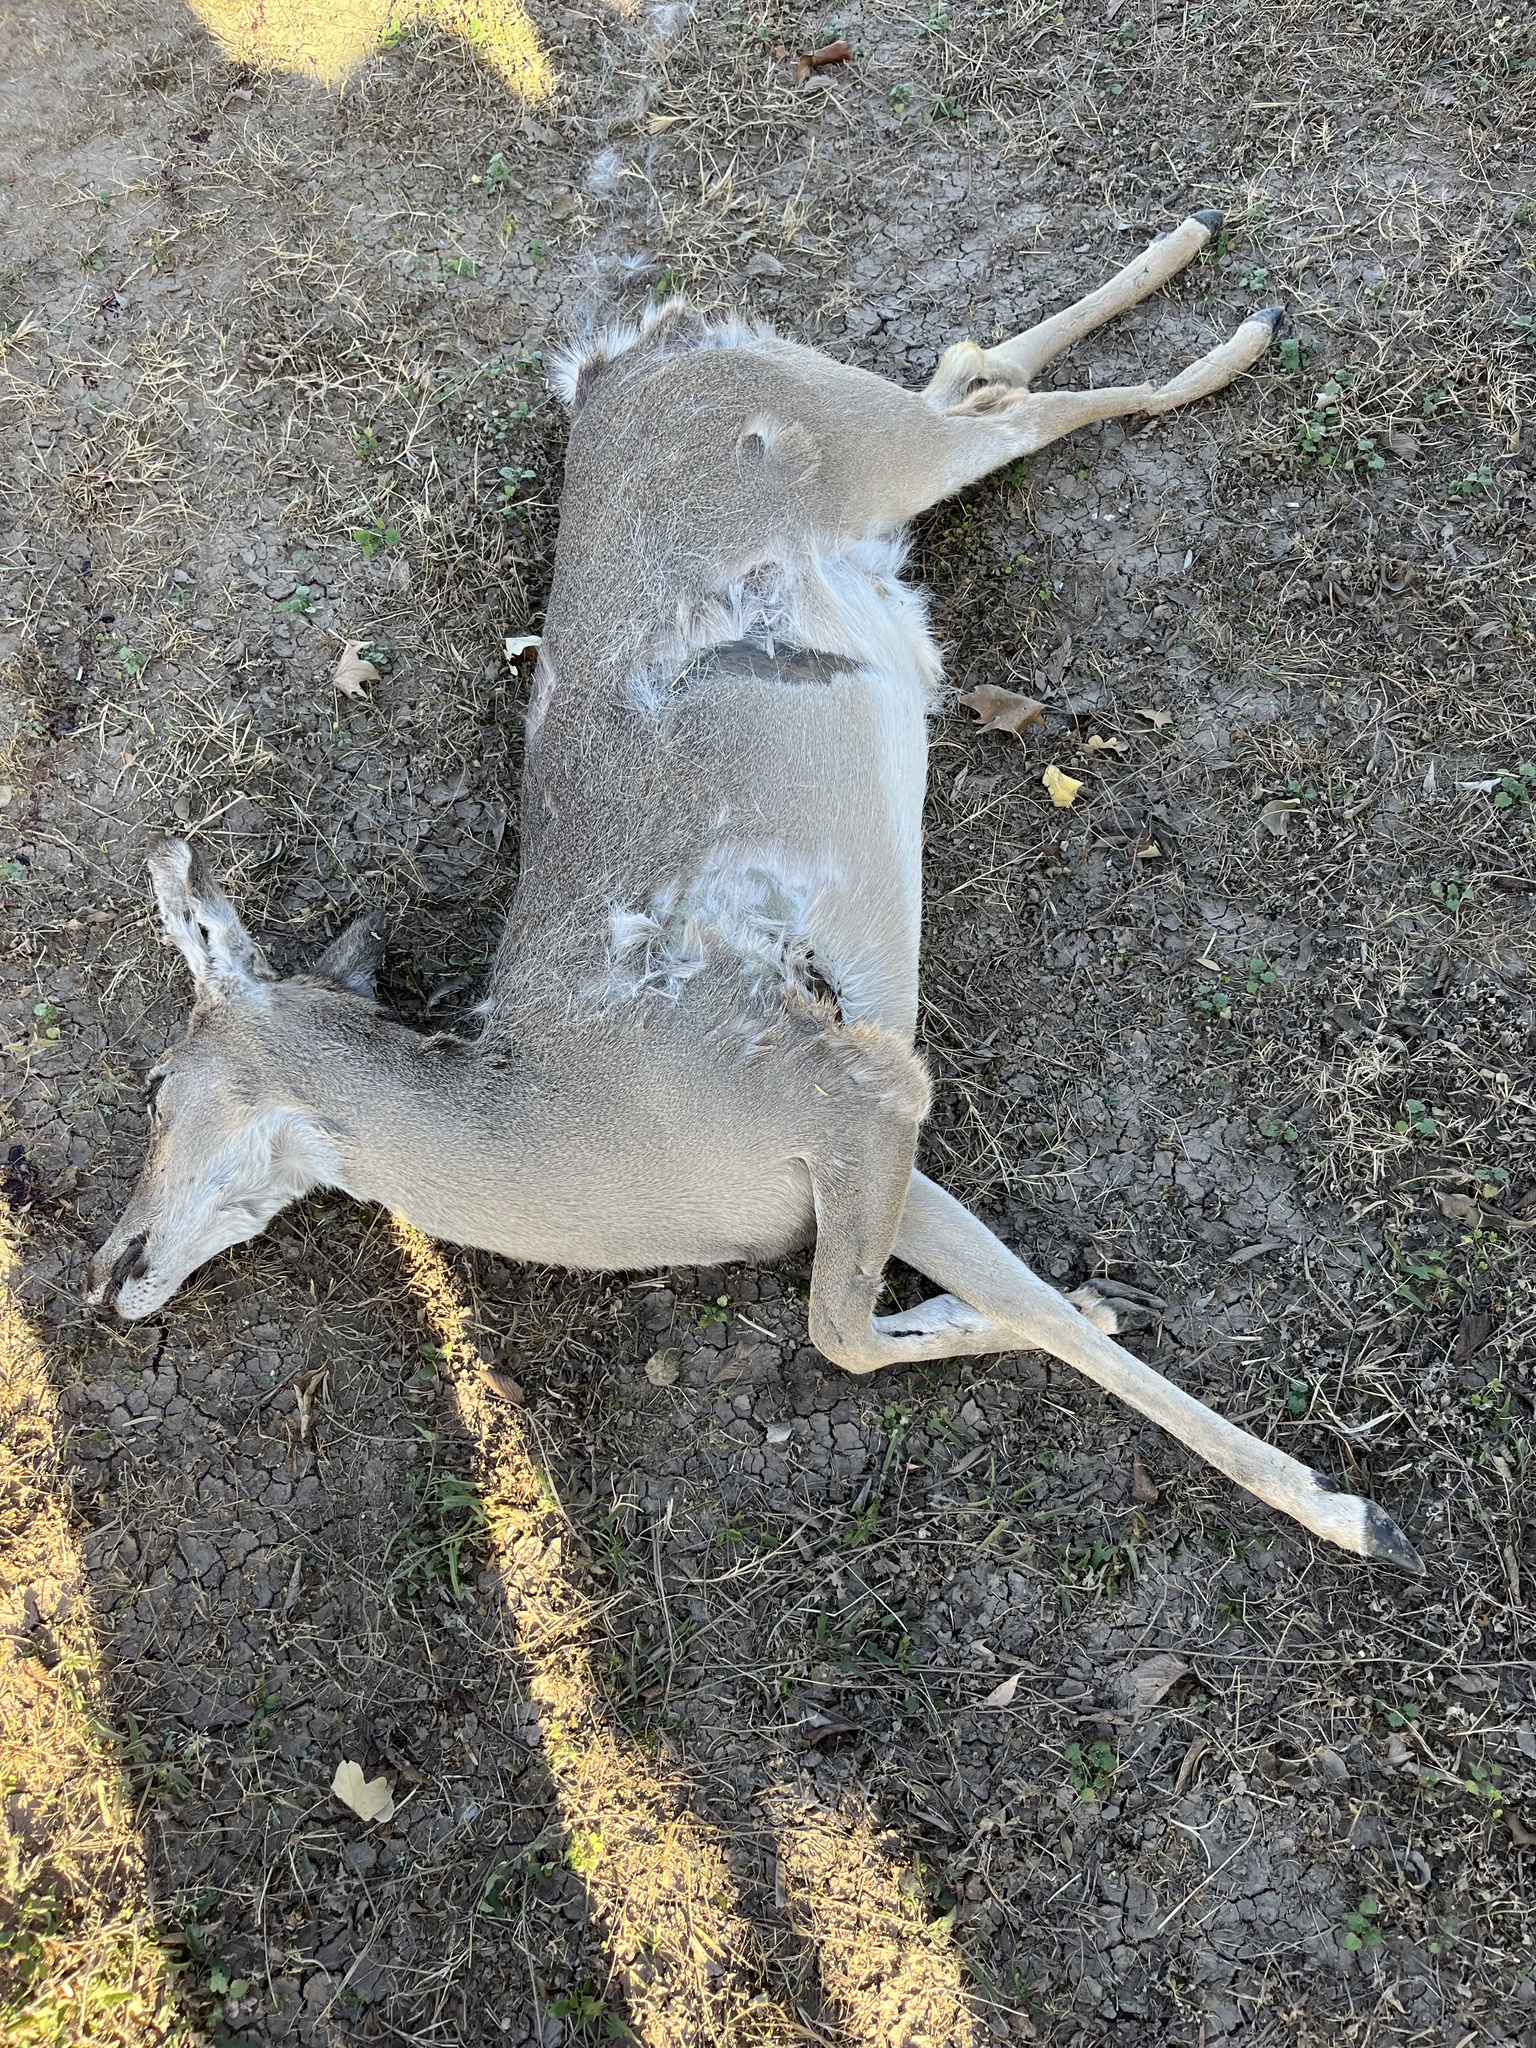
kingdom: Animalia
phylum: Chordata
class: Mammalia
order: Artiodactyla
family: Cervidae
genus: Odocoileus
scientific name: Odocoileus virginianus
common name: White-tailed deer
